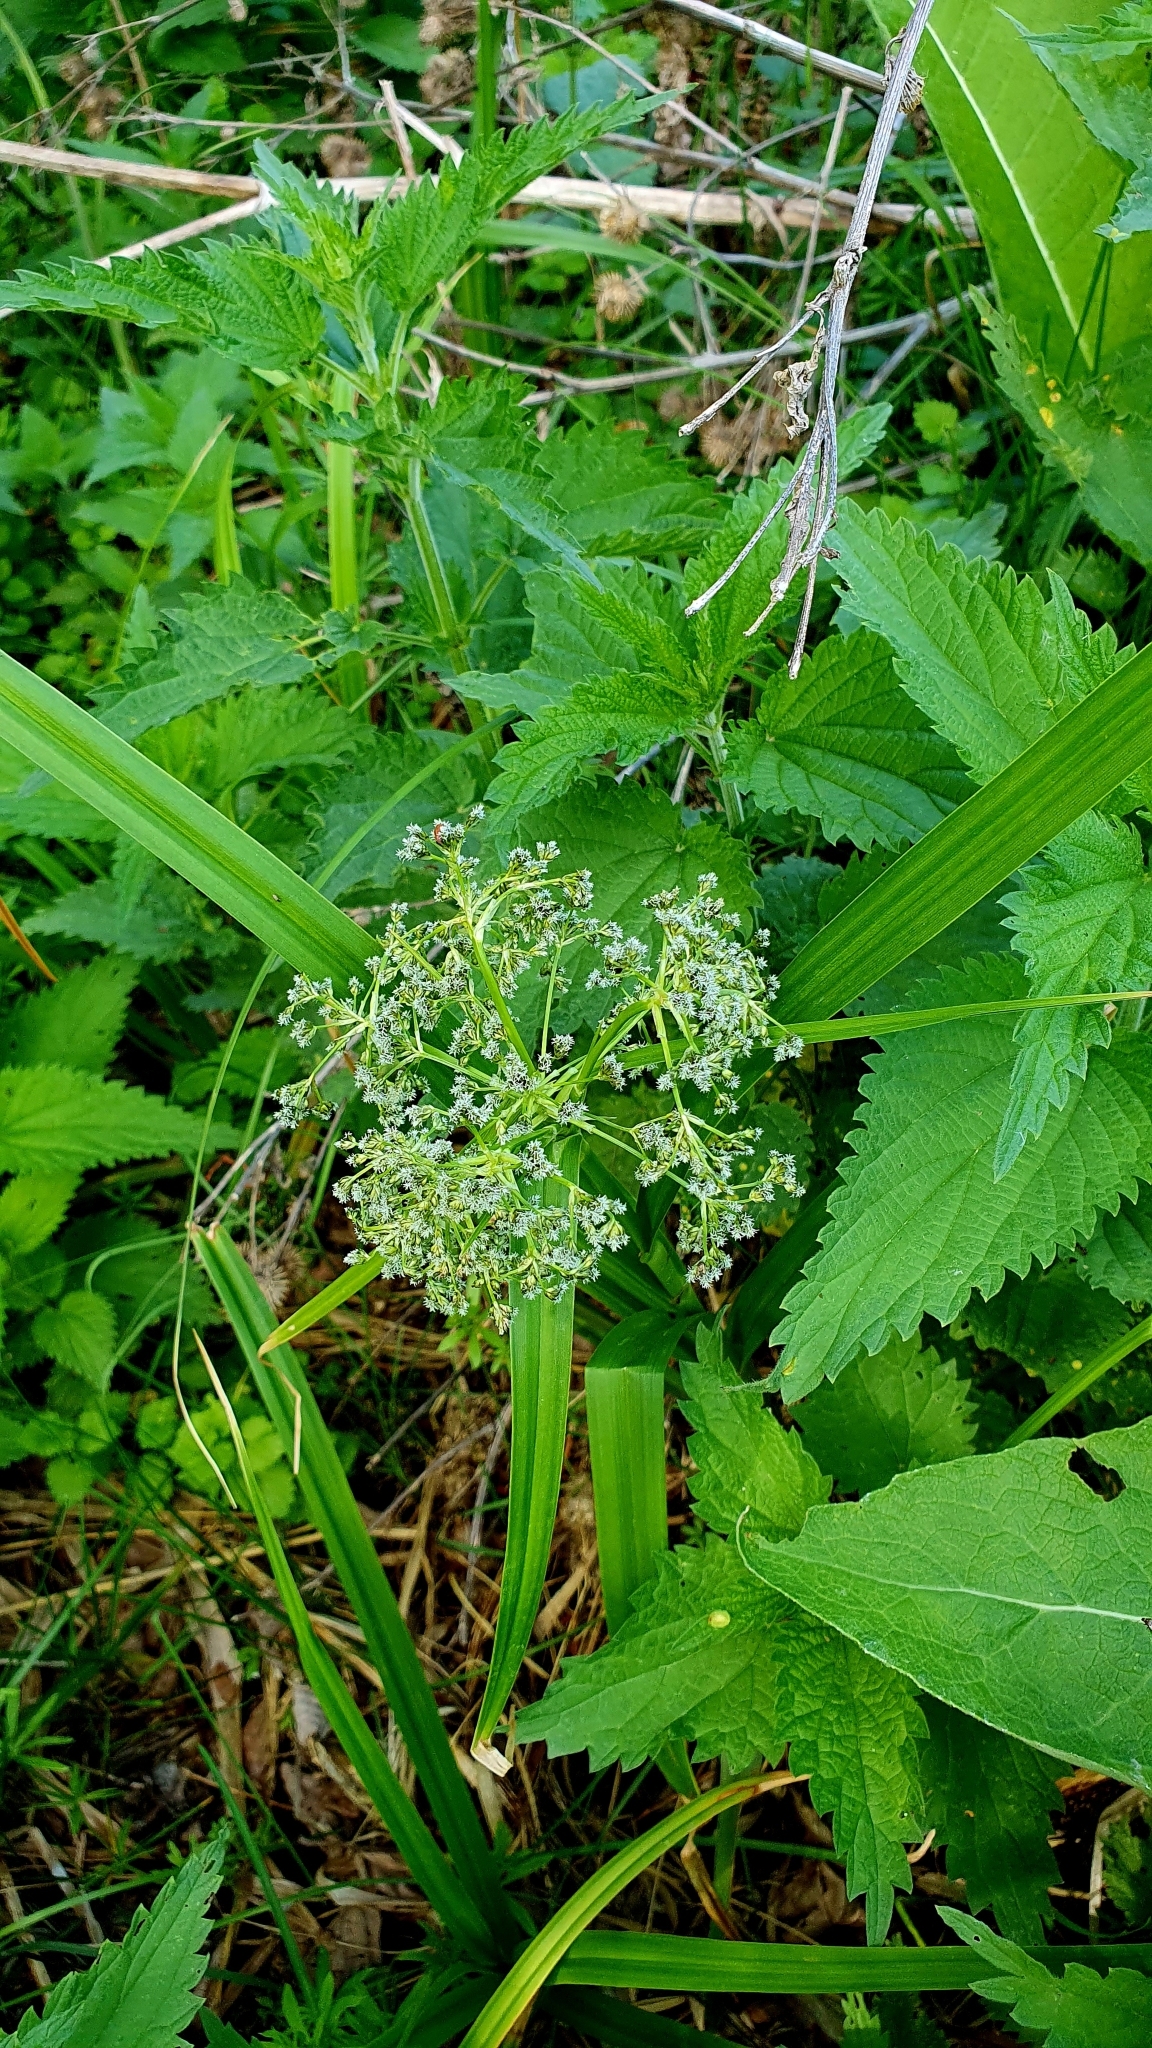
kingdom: Plantae
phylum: Tracheophyta
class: Liliopsida
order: Poales
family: Cyperaceae
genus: Scirpus
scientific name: Scirpus sylvaticus
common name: Wood club-rush
